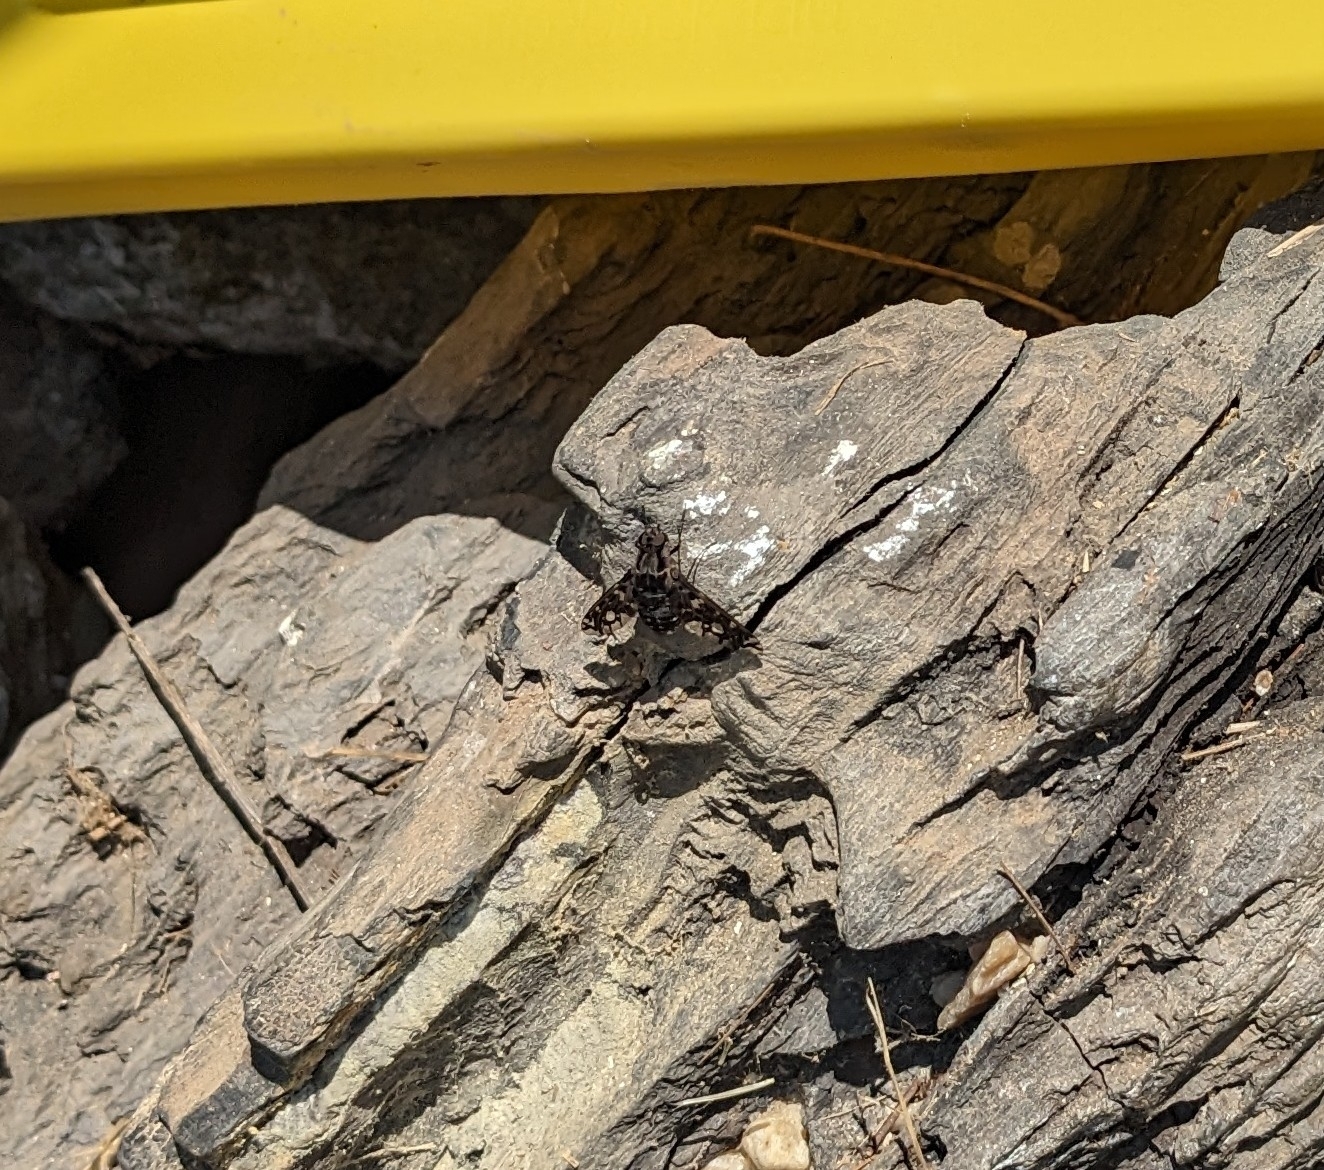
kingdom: Animalia
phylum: Arthropoda
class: Insecta
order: Diptera
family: Bombyliidae
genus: Xenox
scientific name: Xenox tigrinus
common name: Tiger bee fly
